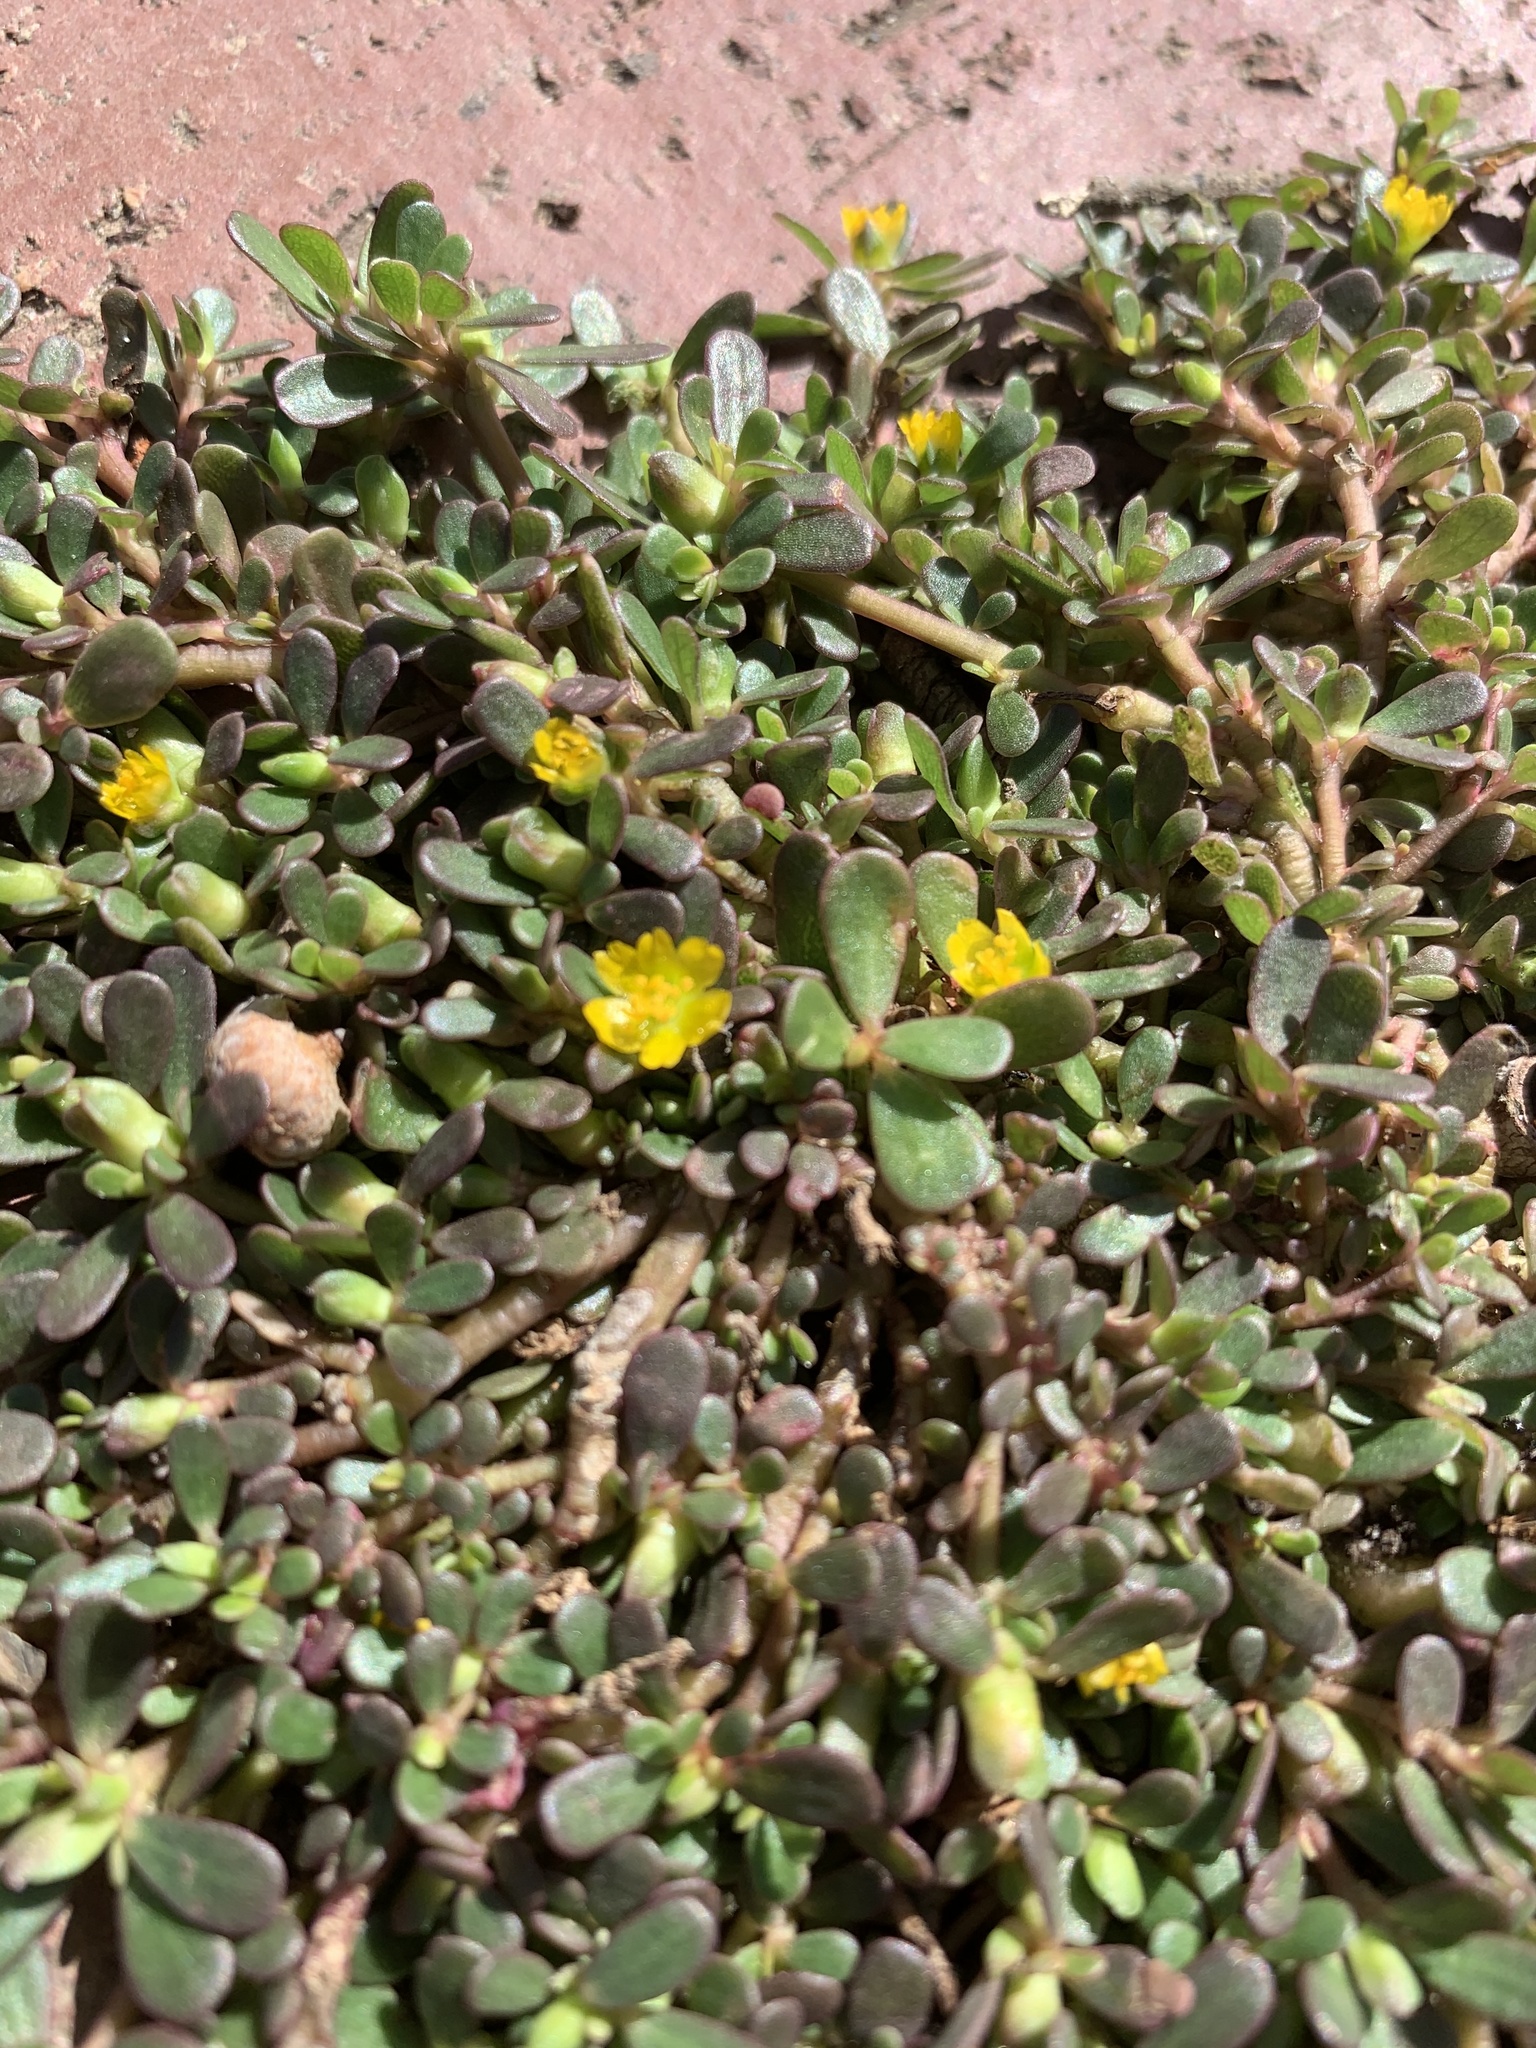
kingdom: Plantae
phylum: Tracheophyta
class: Magnoliopsida
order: Caryophyllales
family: Portulacaceae
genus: Portulaca
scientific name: Portulaca oleracea
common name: Common purslane
